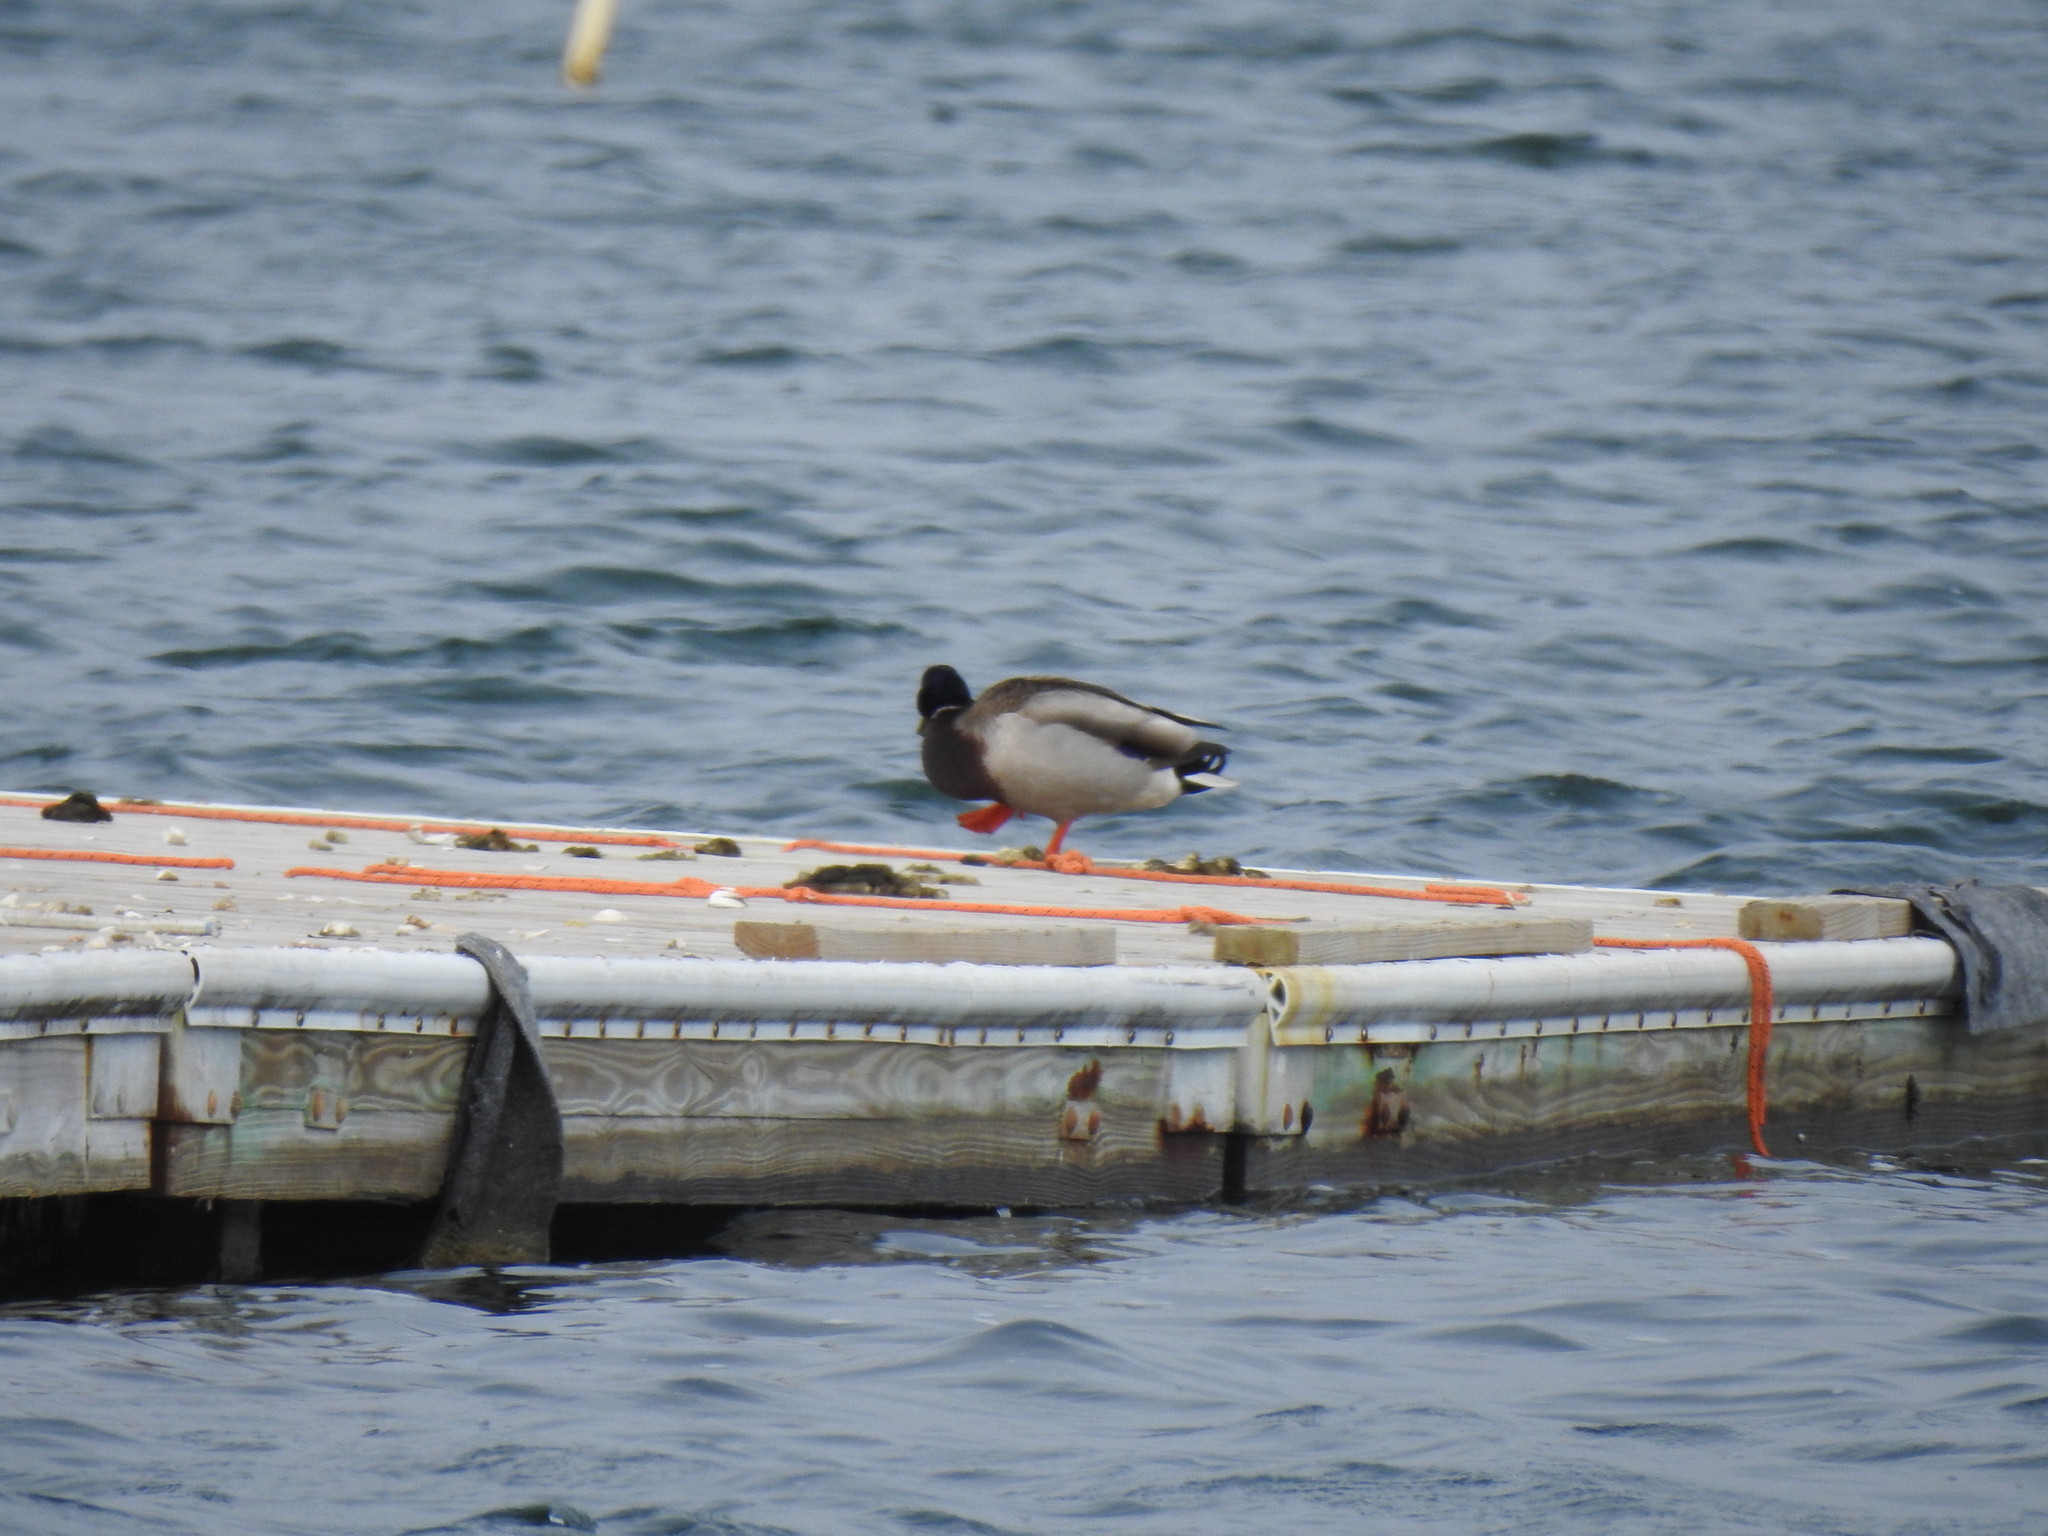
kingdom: Animalia
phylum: Chordata
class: Aves
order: Anseriformes
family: Anatidae
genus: Anas
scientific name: Anas platyrhynchos
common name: Mallard
